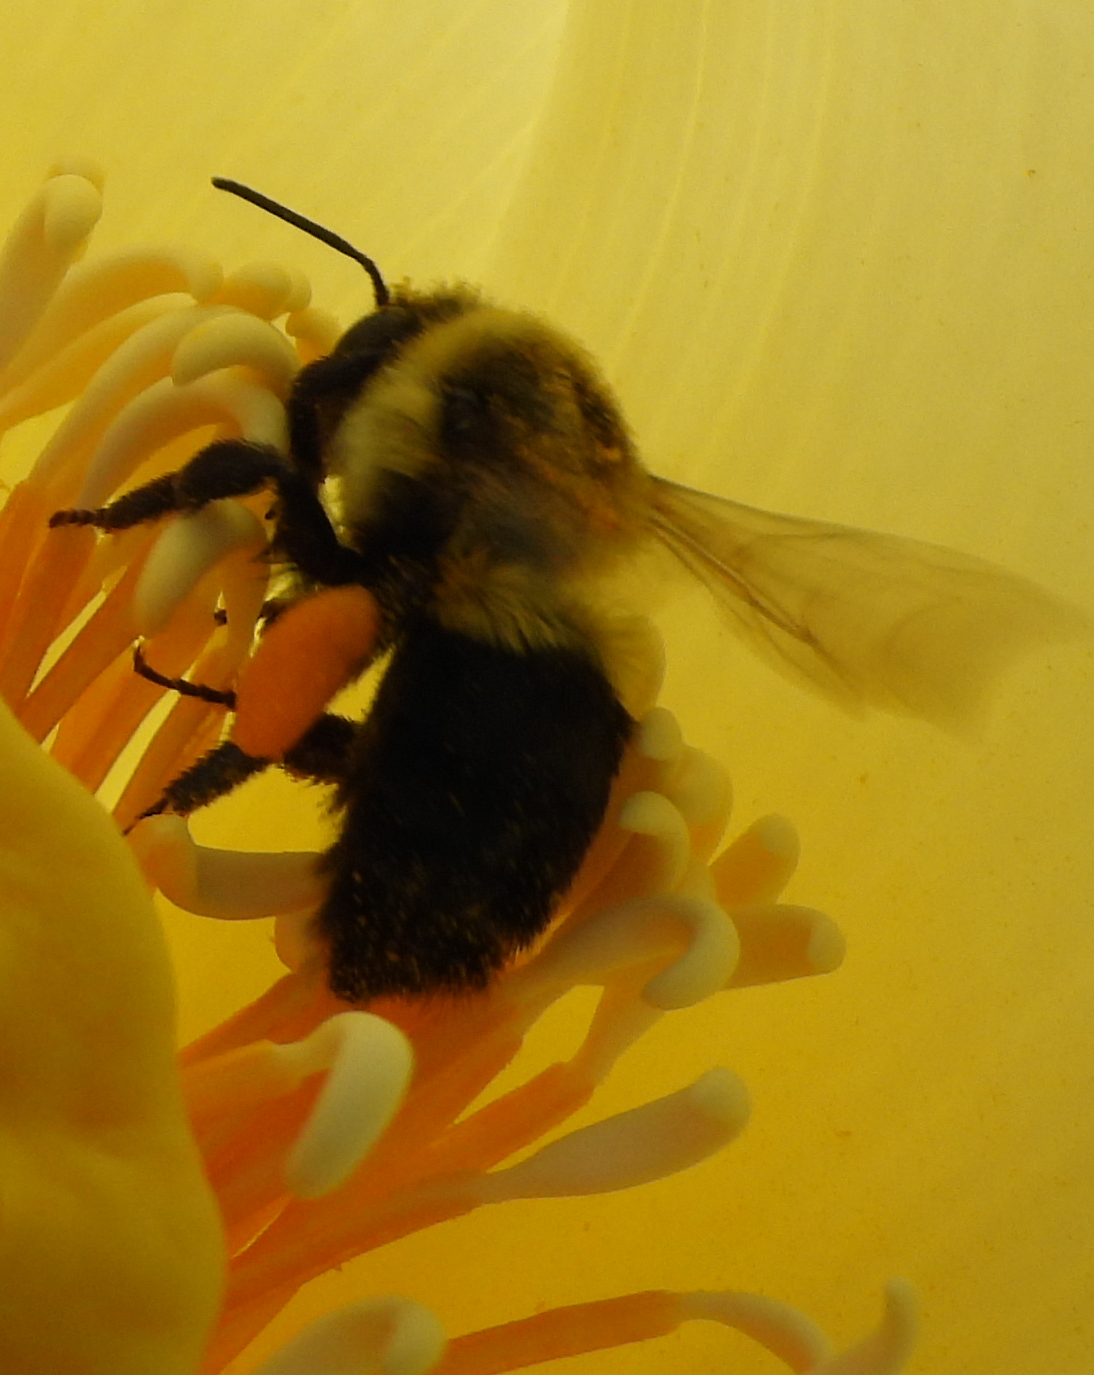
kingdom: Animalia
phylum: Arthropoda
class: Insecta
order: Hymenoptera
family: Apidae
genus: Bombus
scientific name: Bombus impatiens
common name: Common eastern bumble bee
